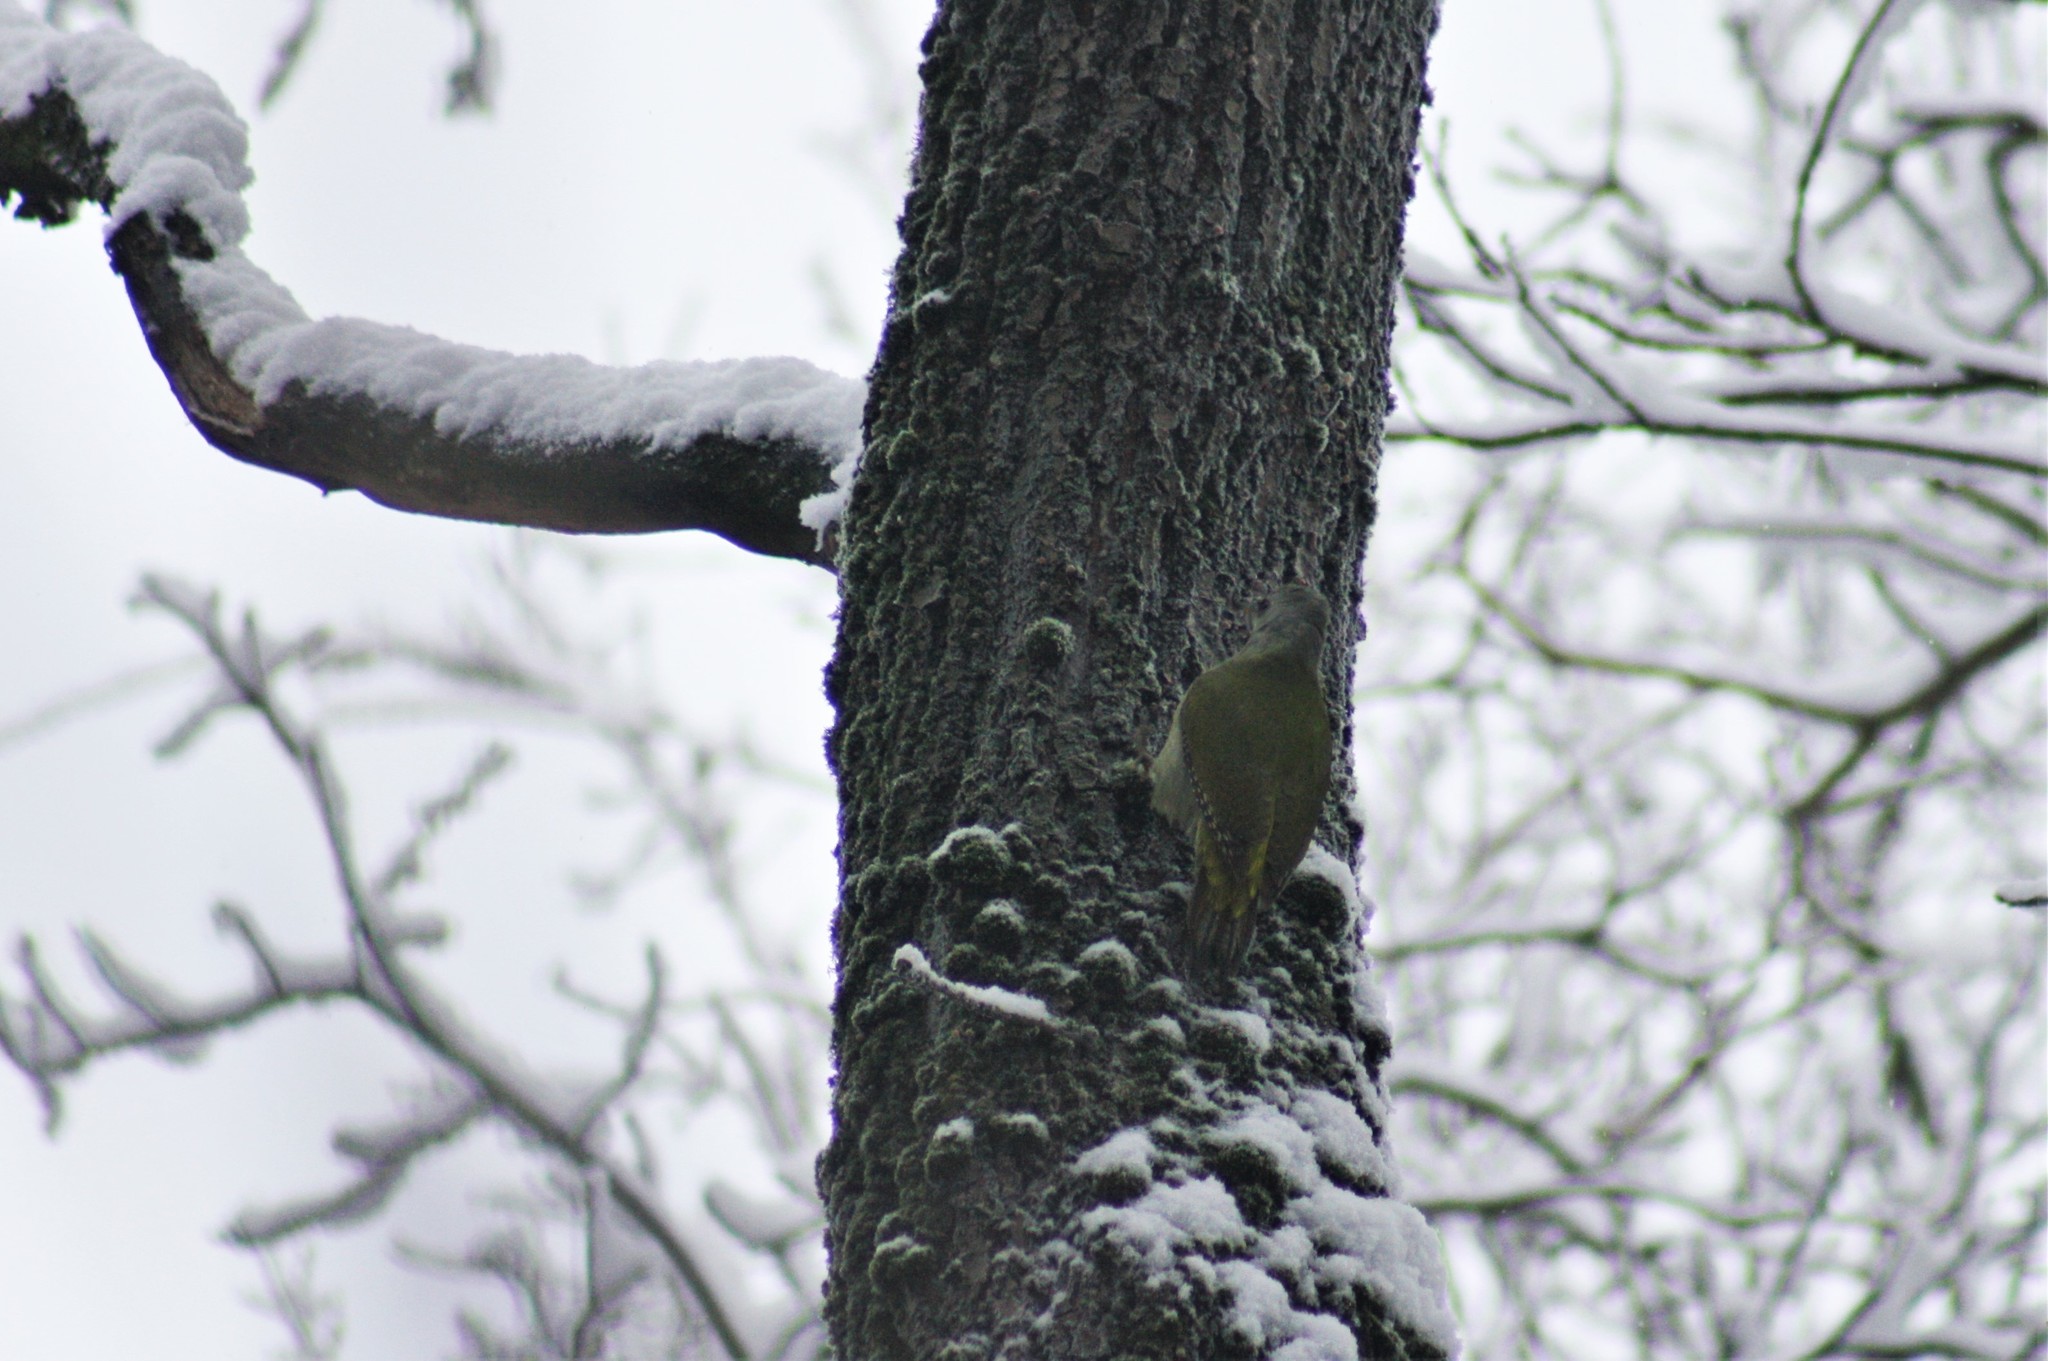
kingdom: Animalia
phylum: Chordata
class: Aves
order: Piciformes
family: Picidae
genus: Picus
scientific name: Picus canus
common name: Grey-headed woodpecker
